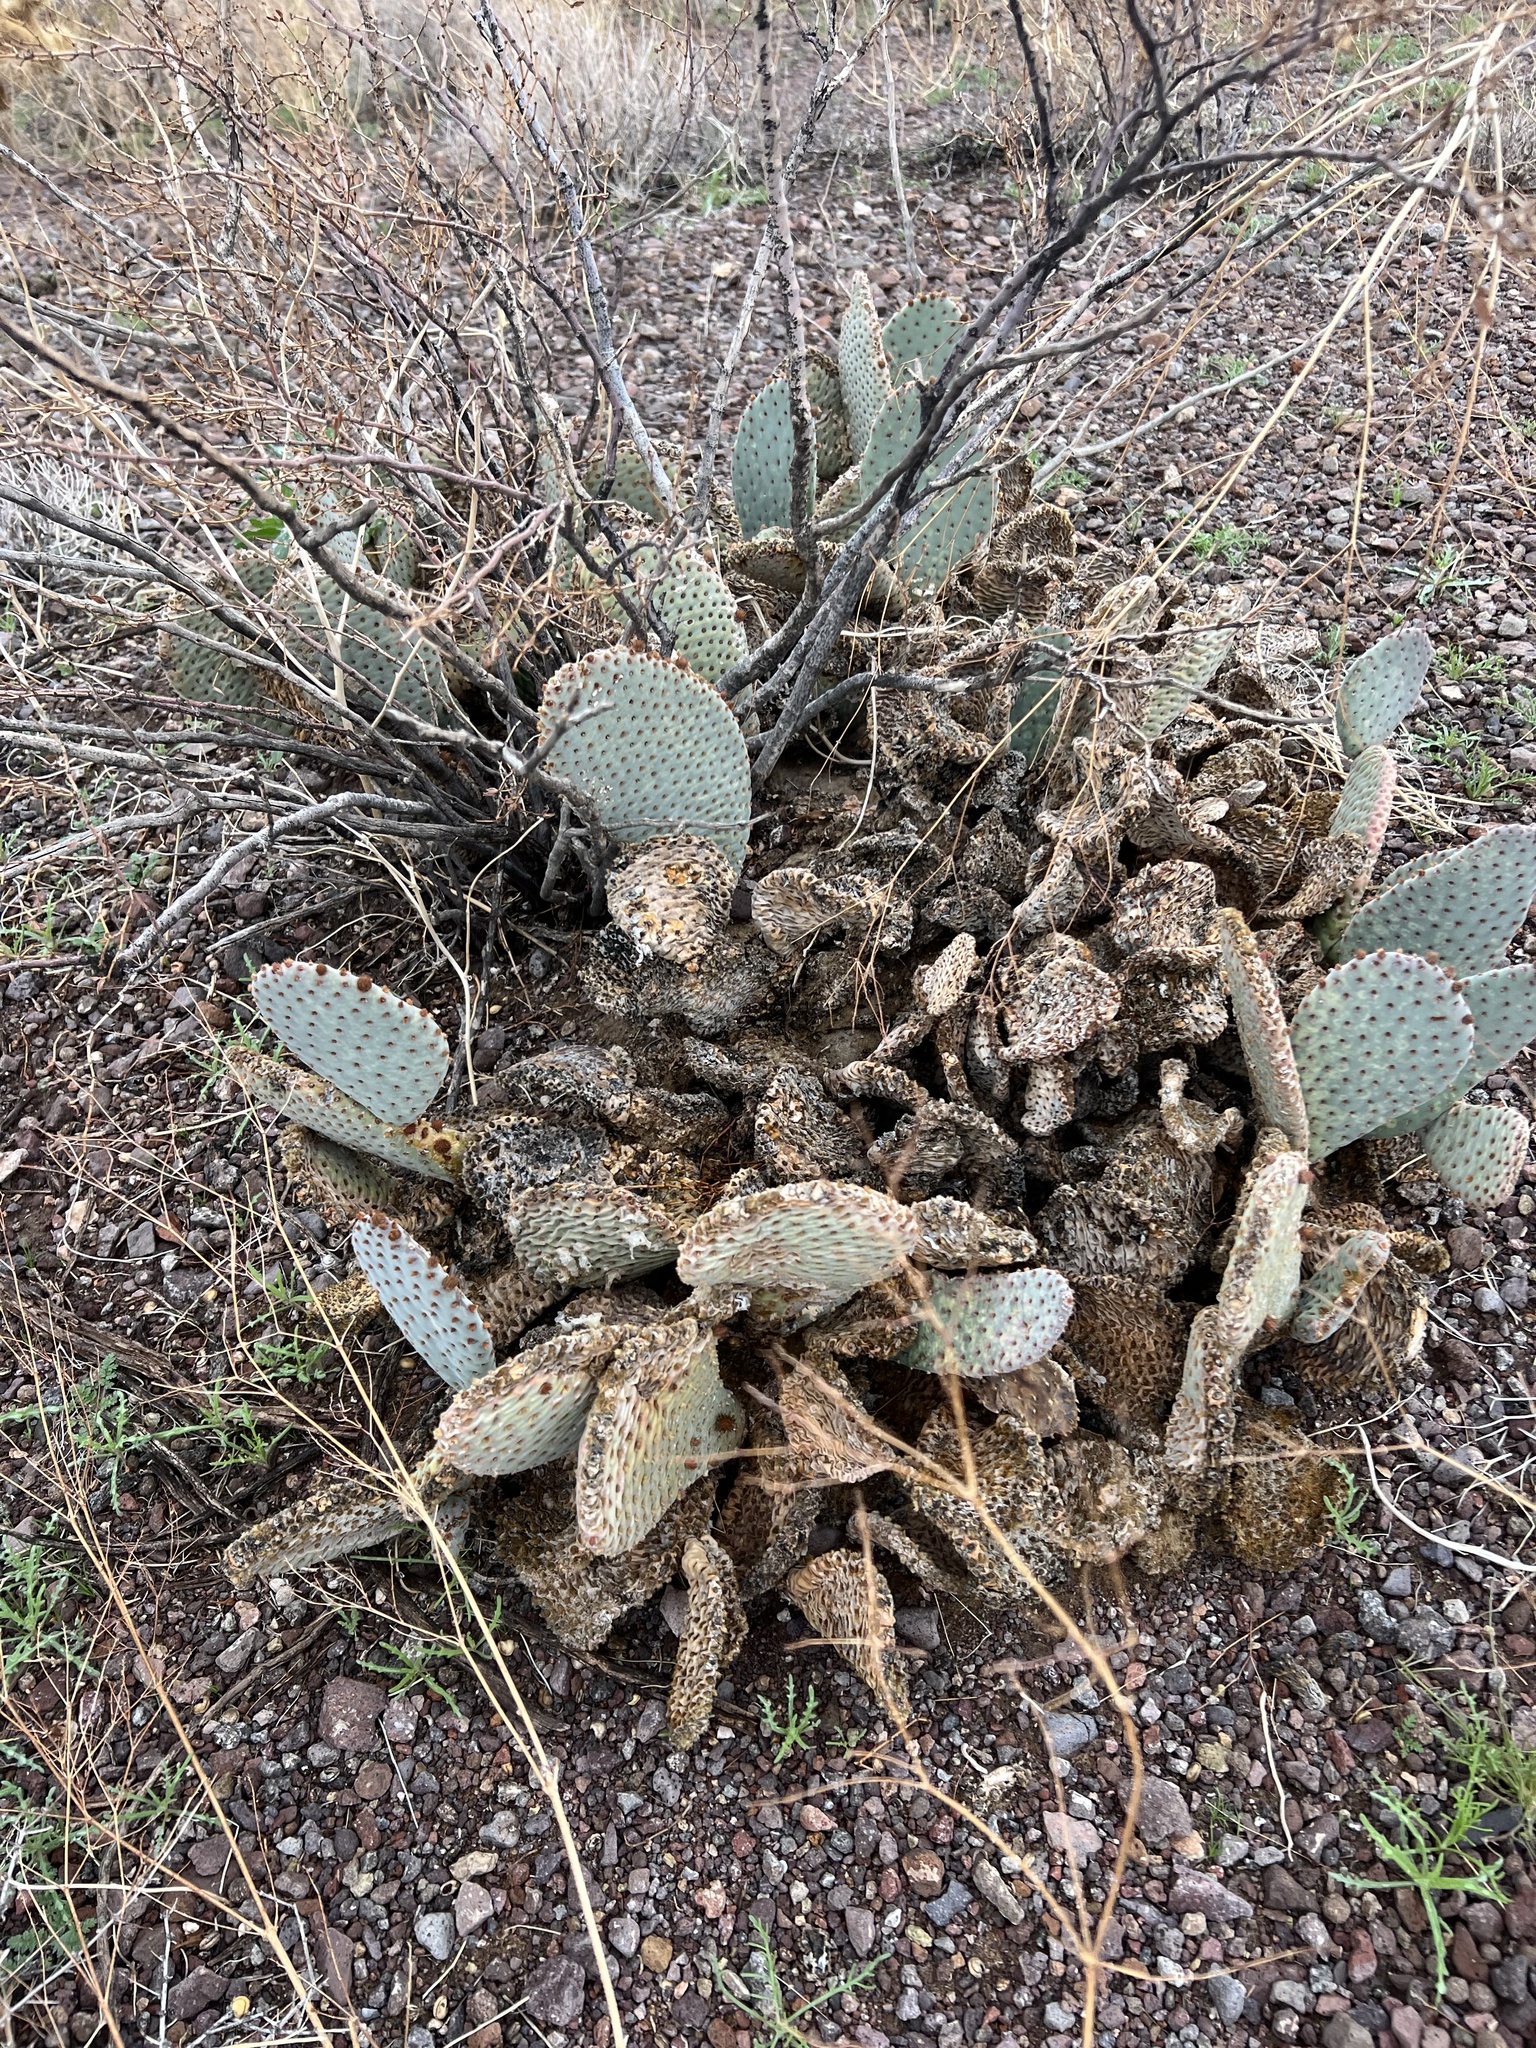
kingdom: Plantae
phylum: Tracheophyta
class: Magnoliopsida
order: Caryophyllales
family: Cactaceae
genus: Opuntia
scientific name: Opuntia basilaris
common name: Beavertail prickly-pear
